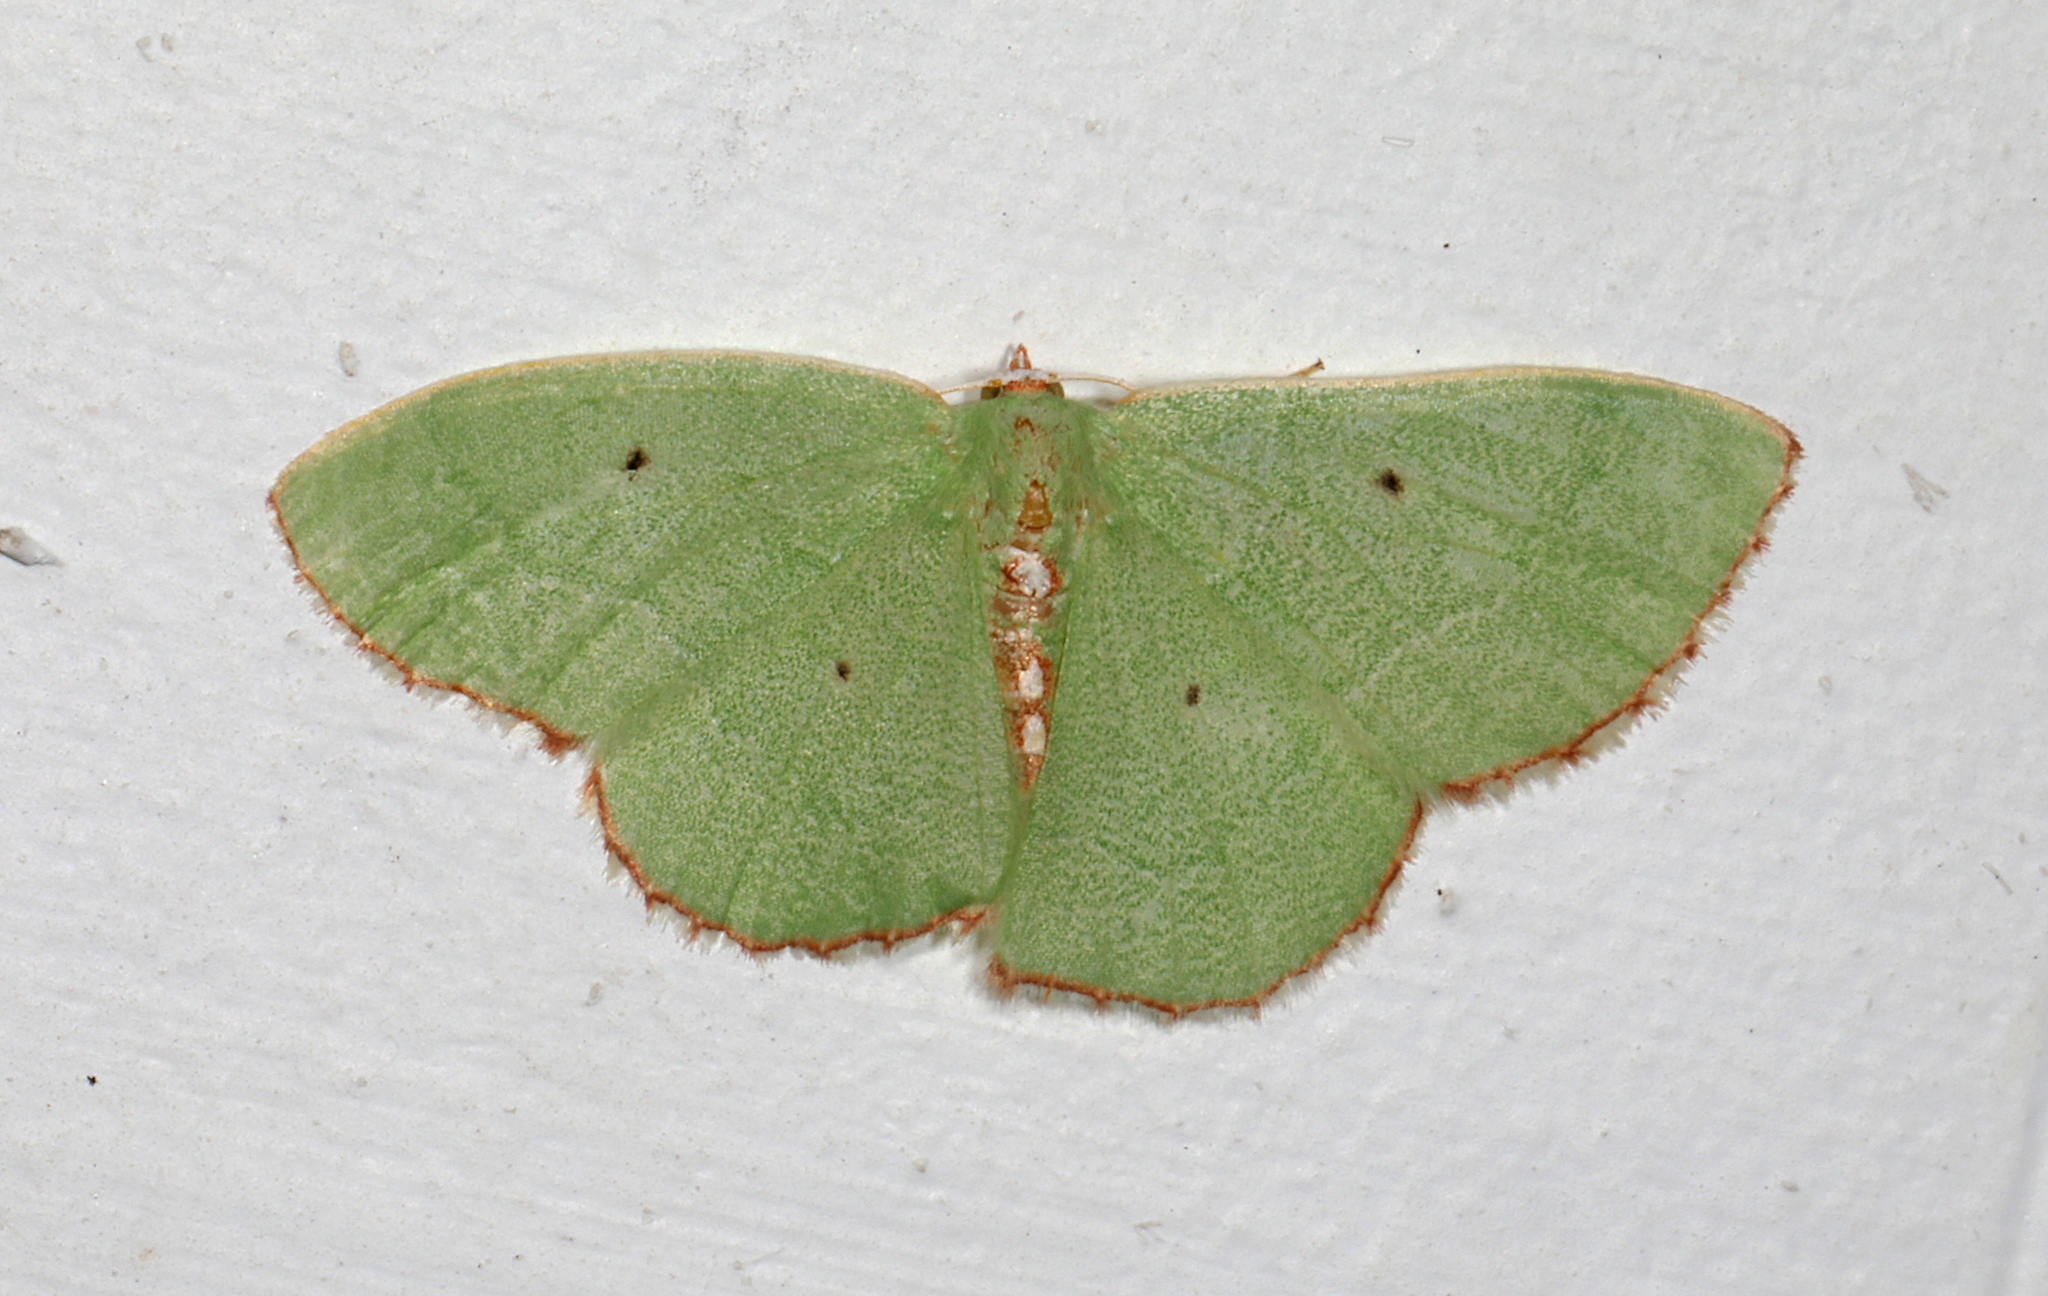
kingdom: Animalia
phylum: Arthropoda
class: Insecta
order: Lepidoptera
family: Geometridae
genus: Nemoria
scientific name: Nemoria lixaria
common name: Red-bordered emerald
